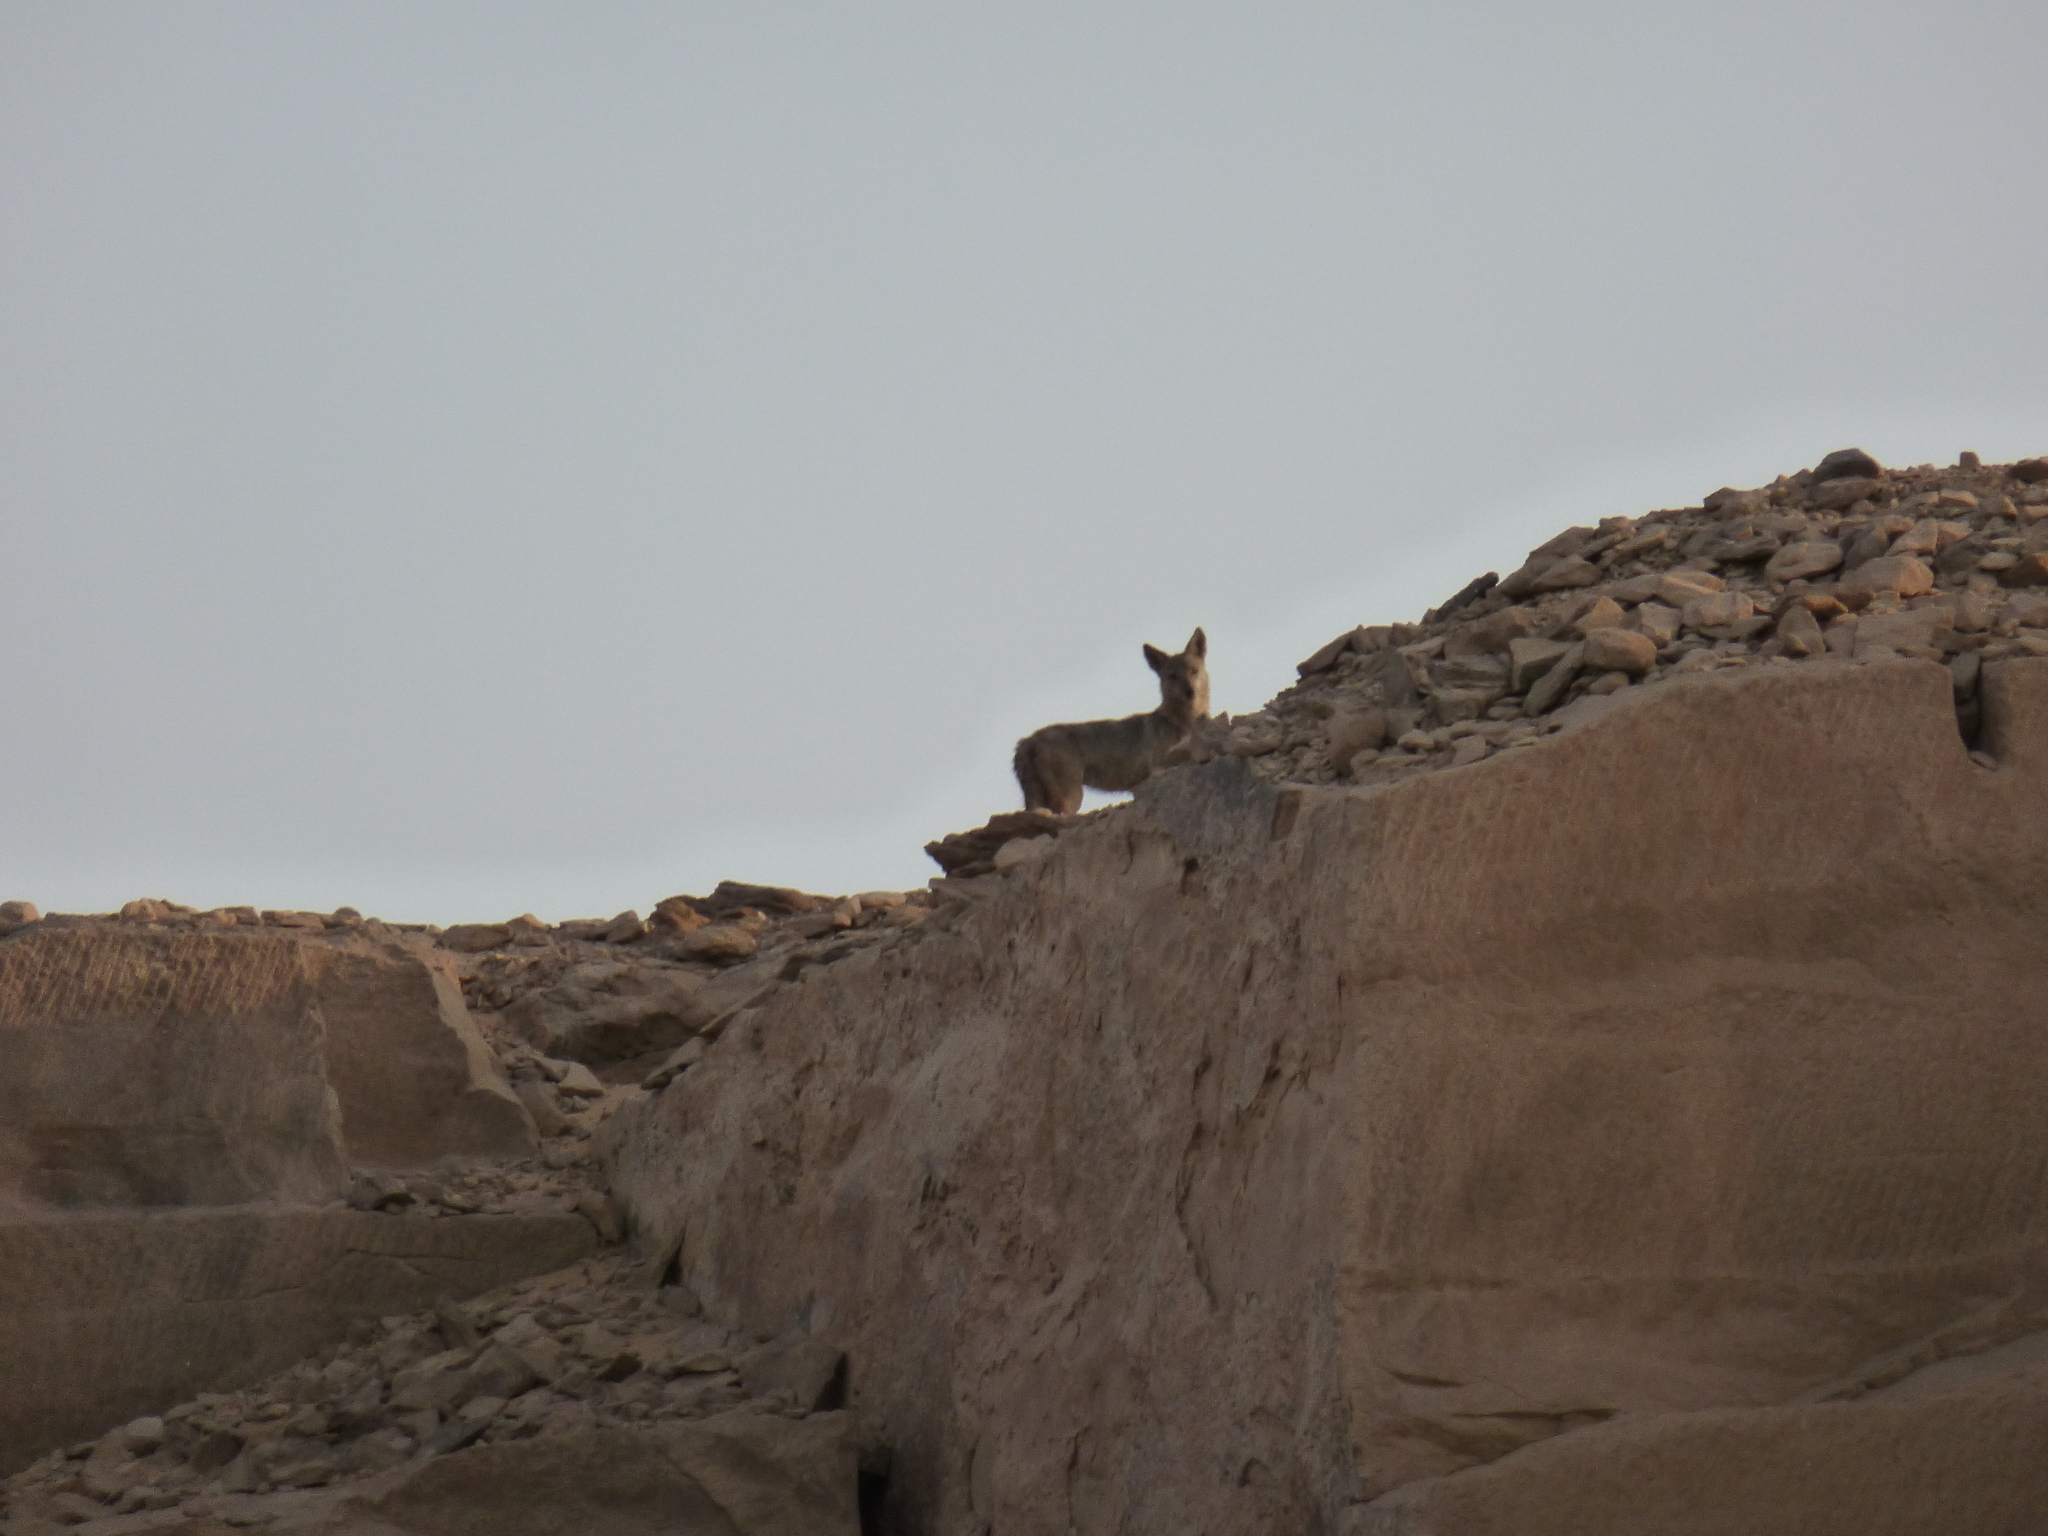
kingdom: Animalia
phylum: Chordata
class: Mammalia
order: Carnivora
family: Canidae
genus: Canis
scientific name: Canis lupaster
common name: African golden wolf
